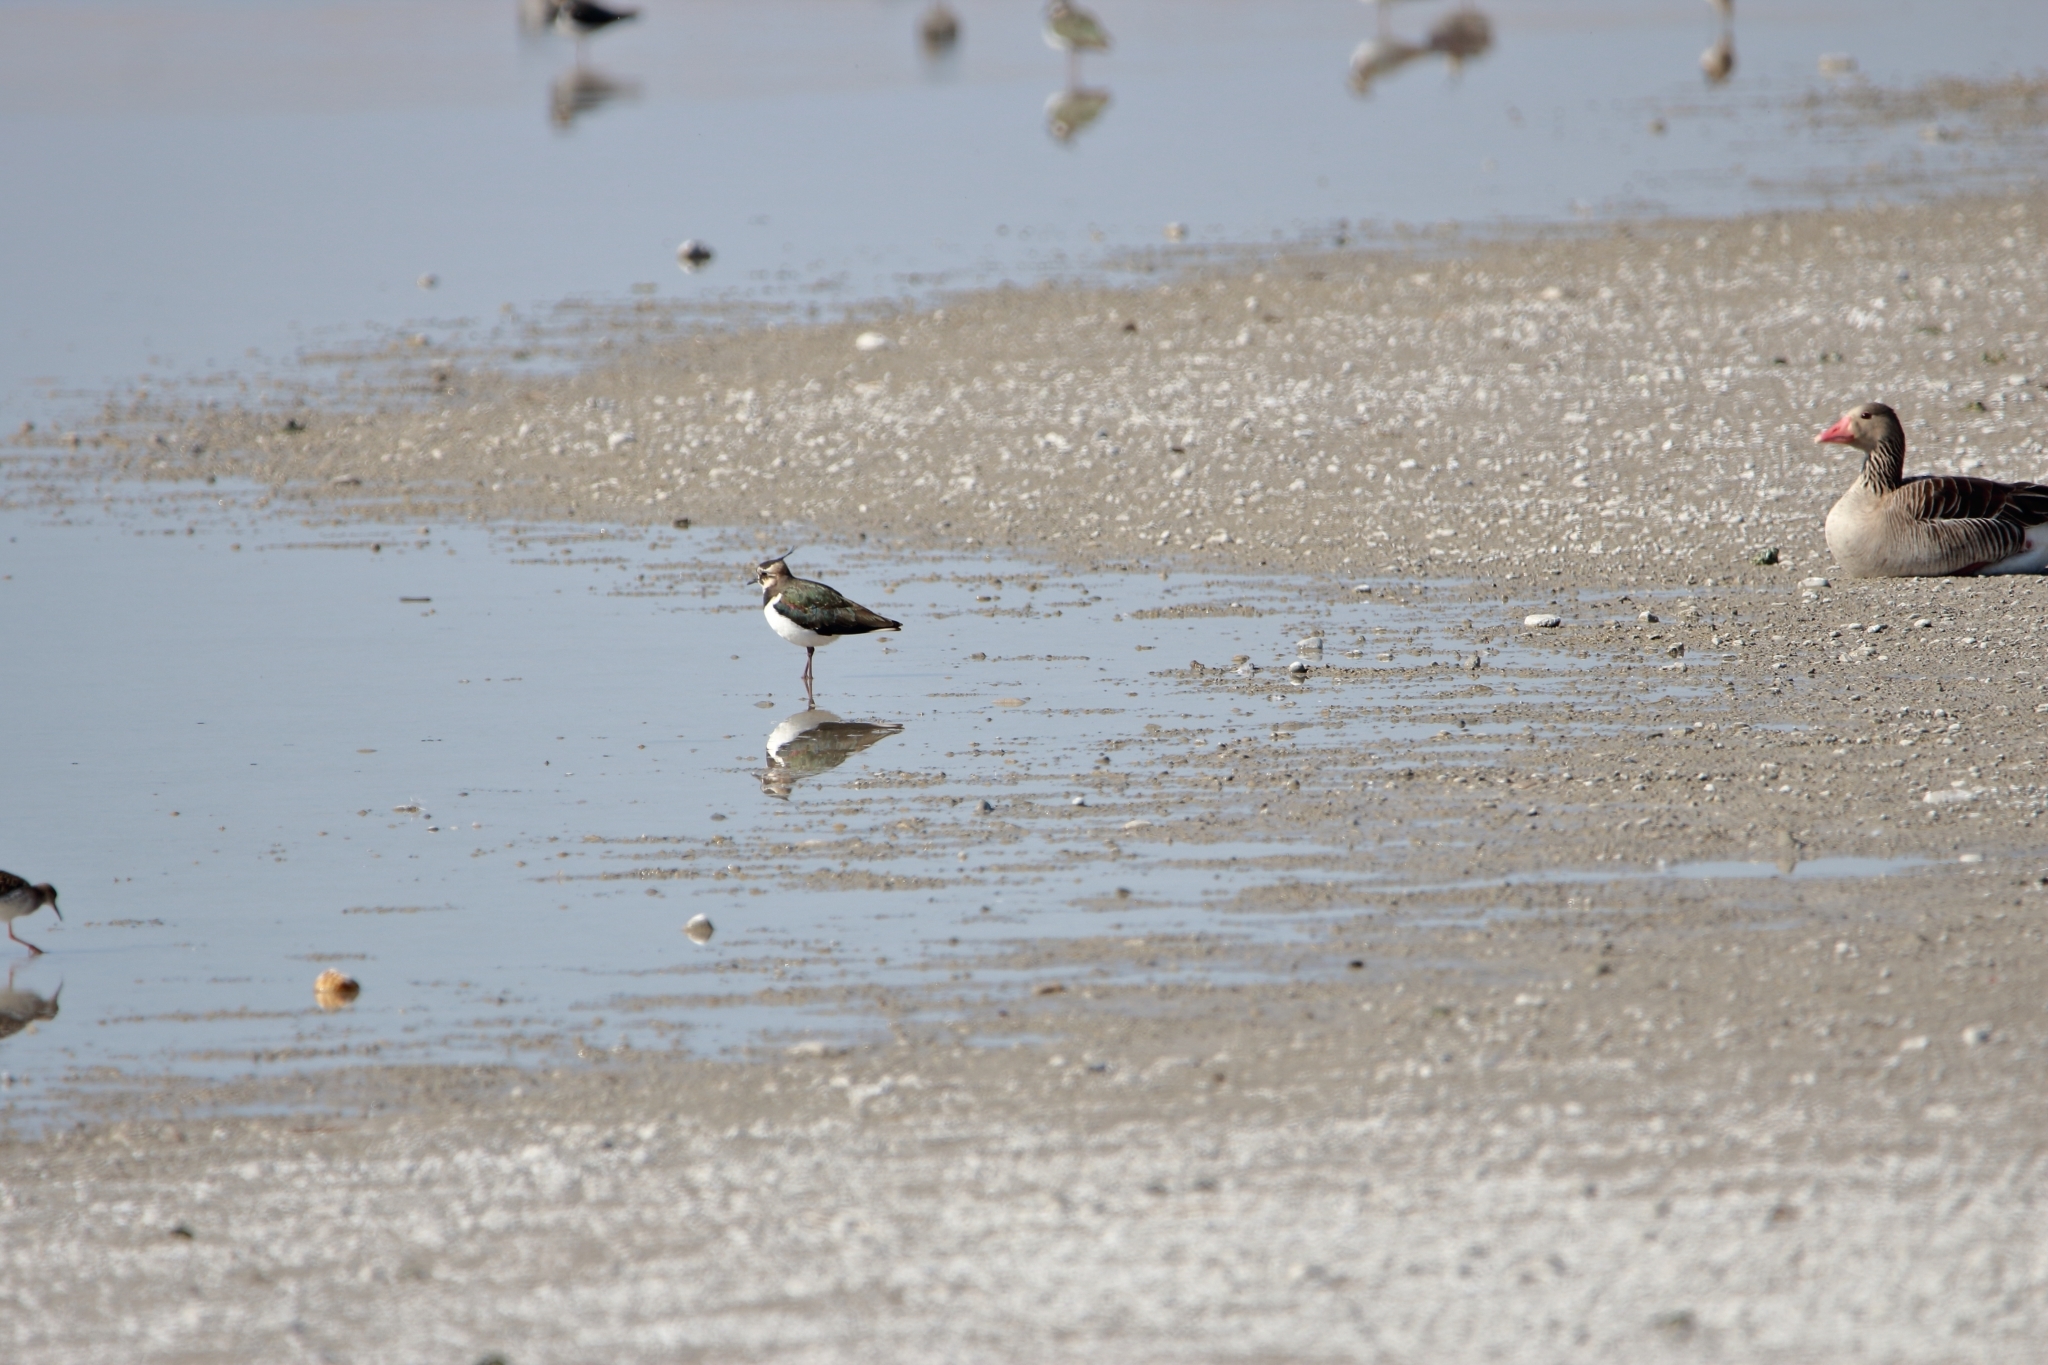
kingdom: Animalia
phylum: Chordata
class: Aves
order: Charadriiformes
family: Charadriidae
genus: Vanellus
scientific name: Vanellus vanellus
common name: Northern lapwing
